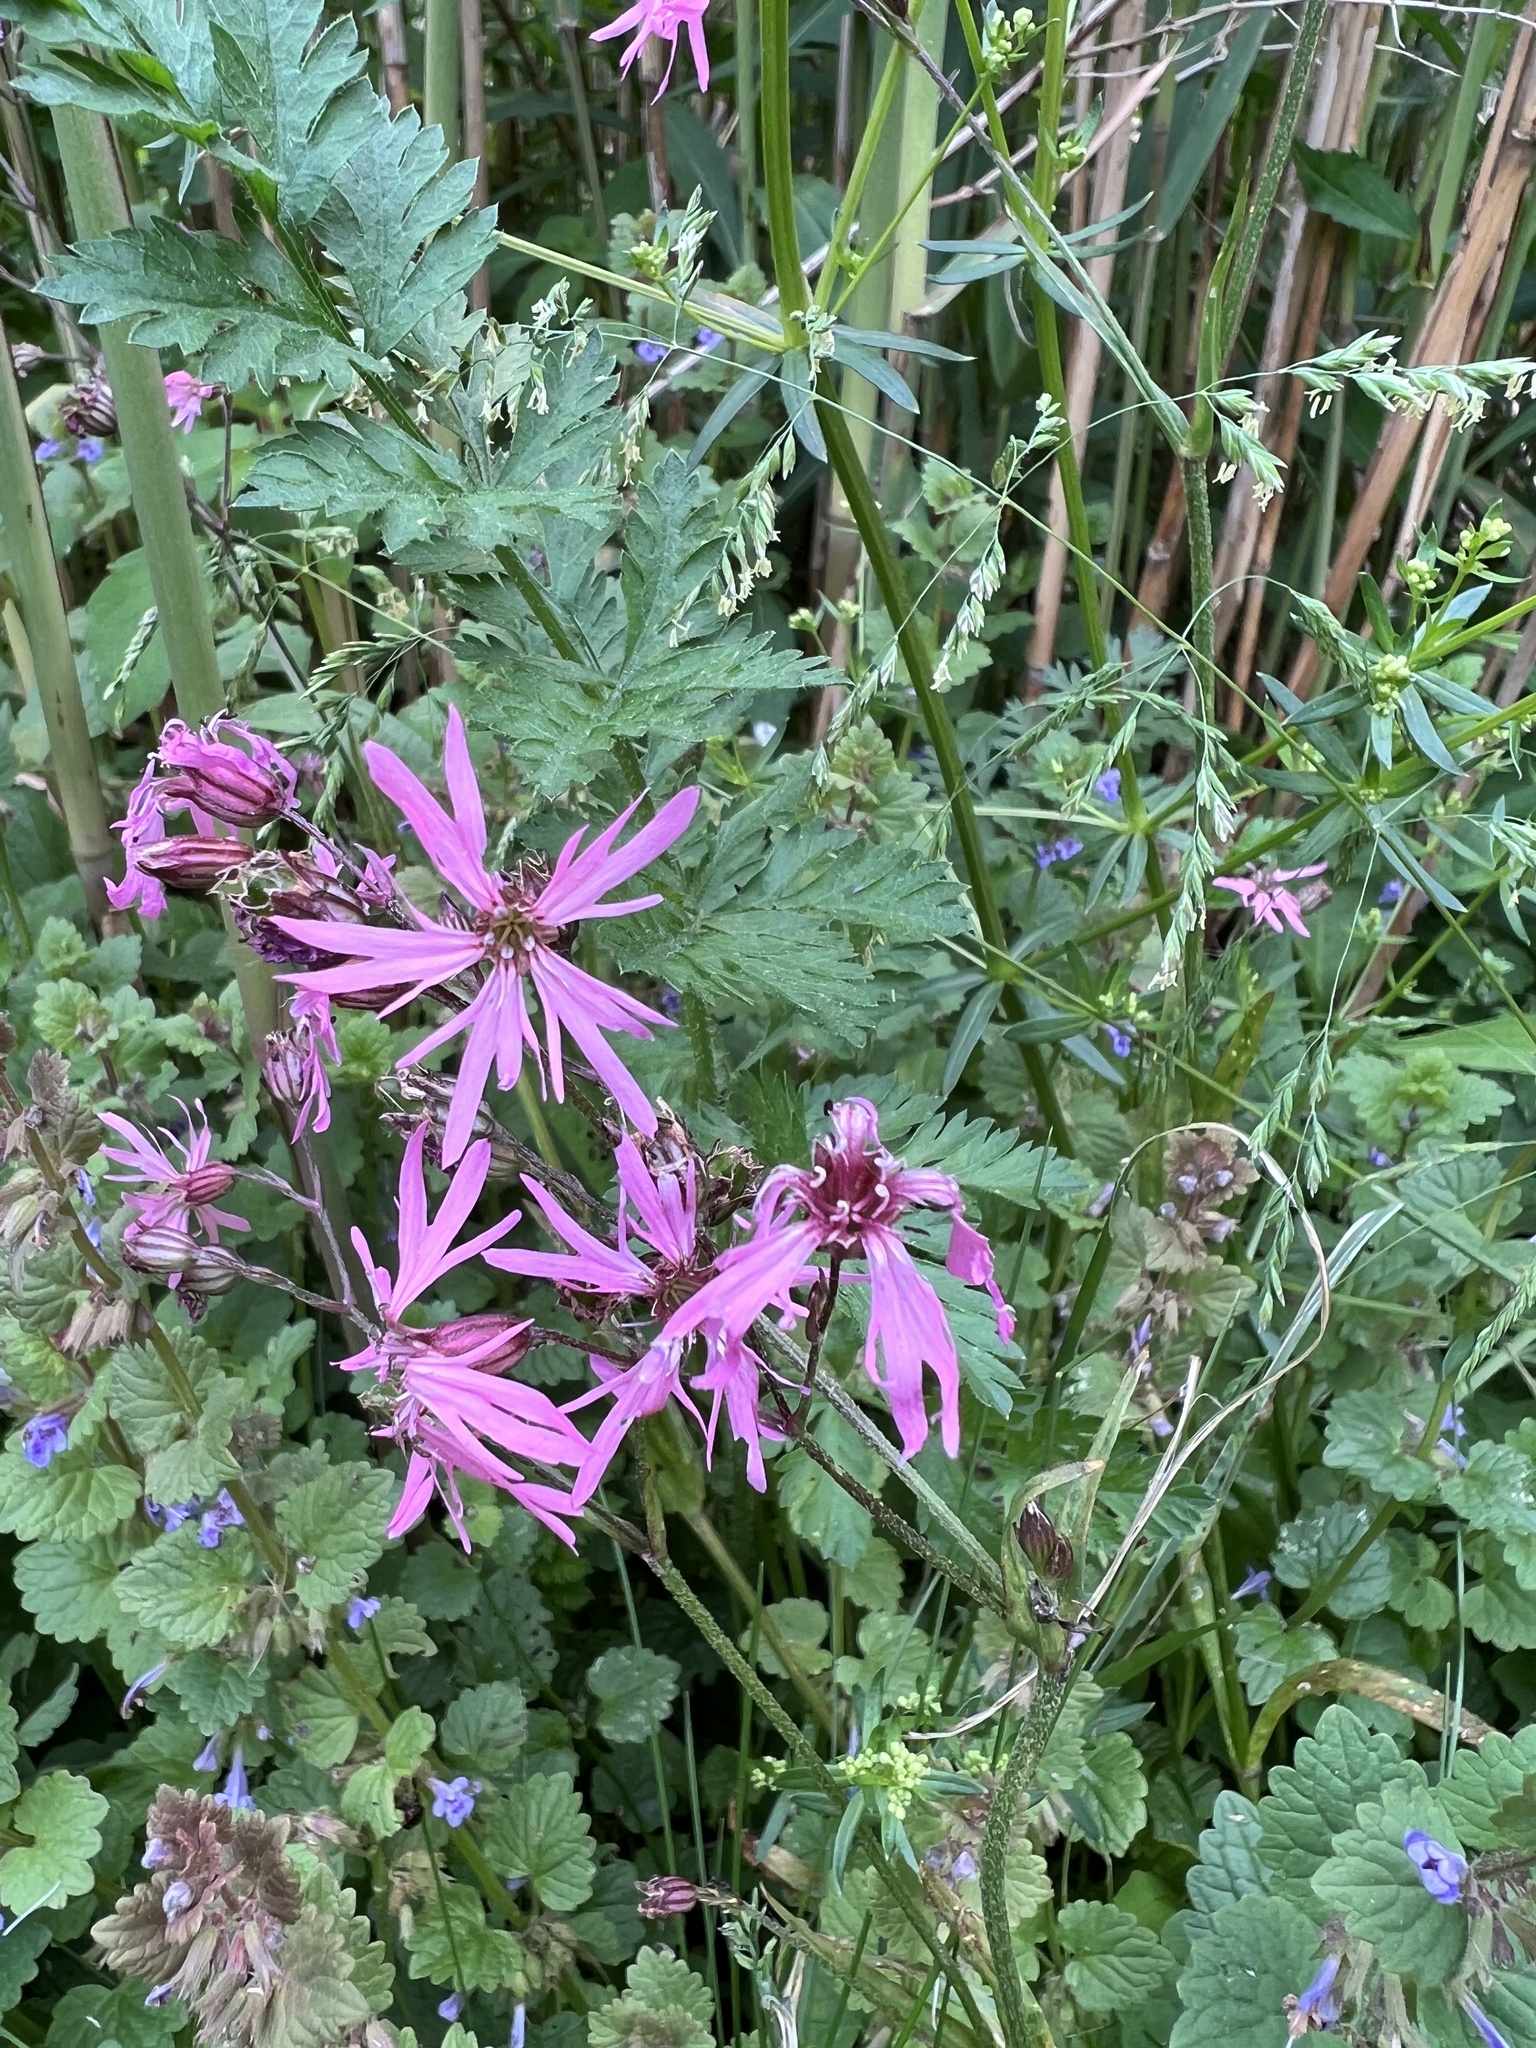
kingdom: Plantae
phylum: Tracheophyta
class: Magnoliopsida
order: Caryophyllales
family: Caryophyllaceae
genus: Silene
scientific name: Silene flos-cuculi
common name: Ragged-robin
